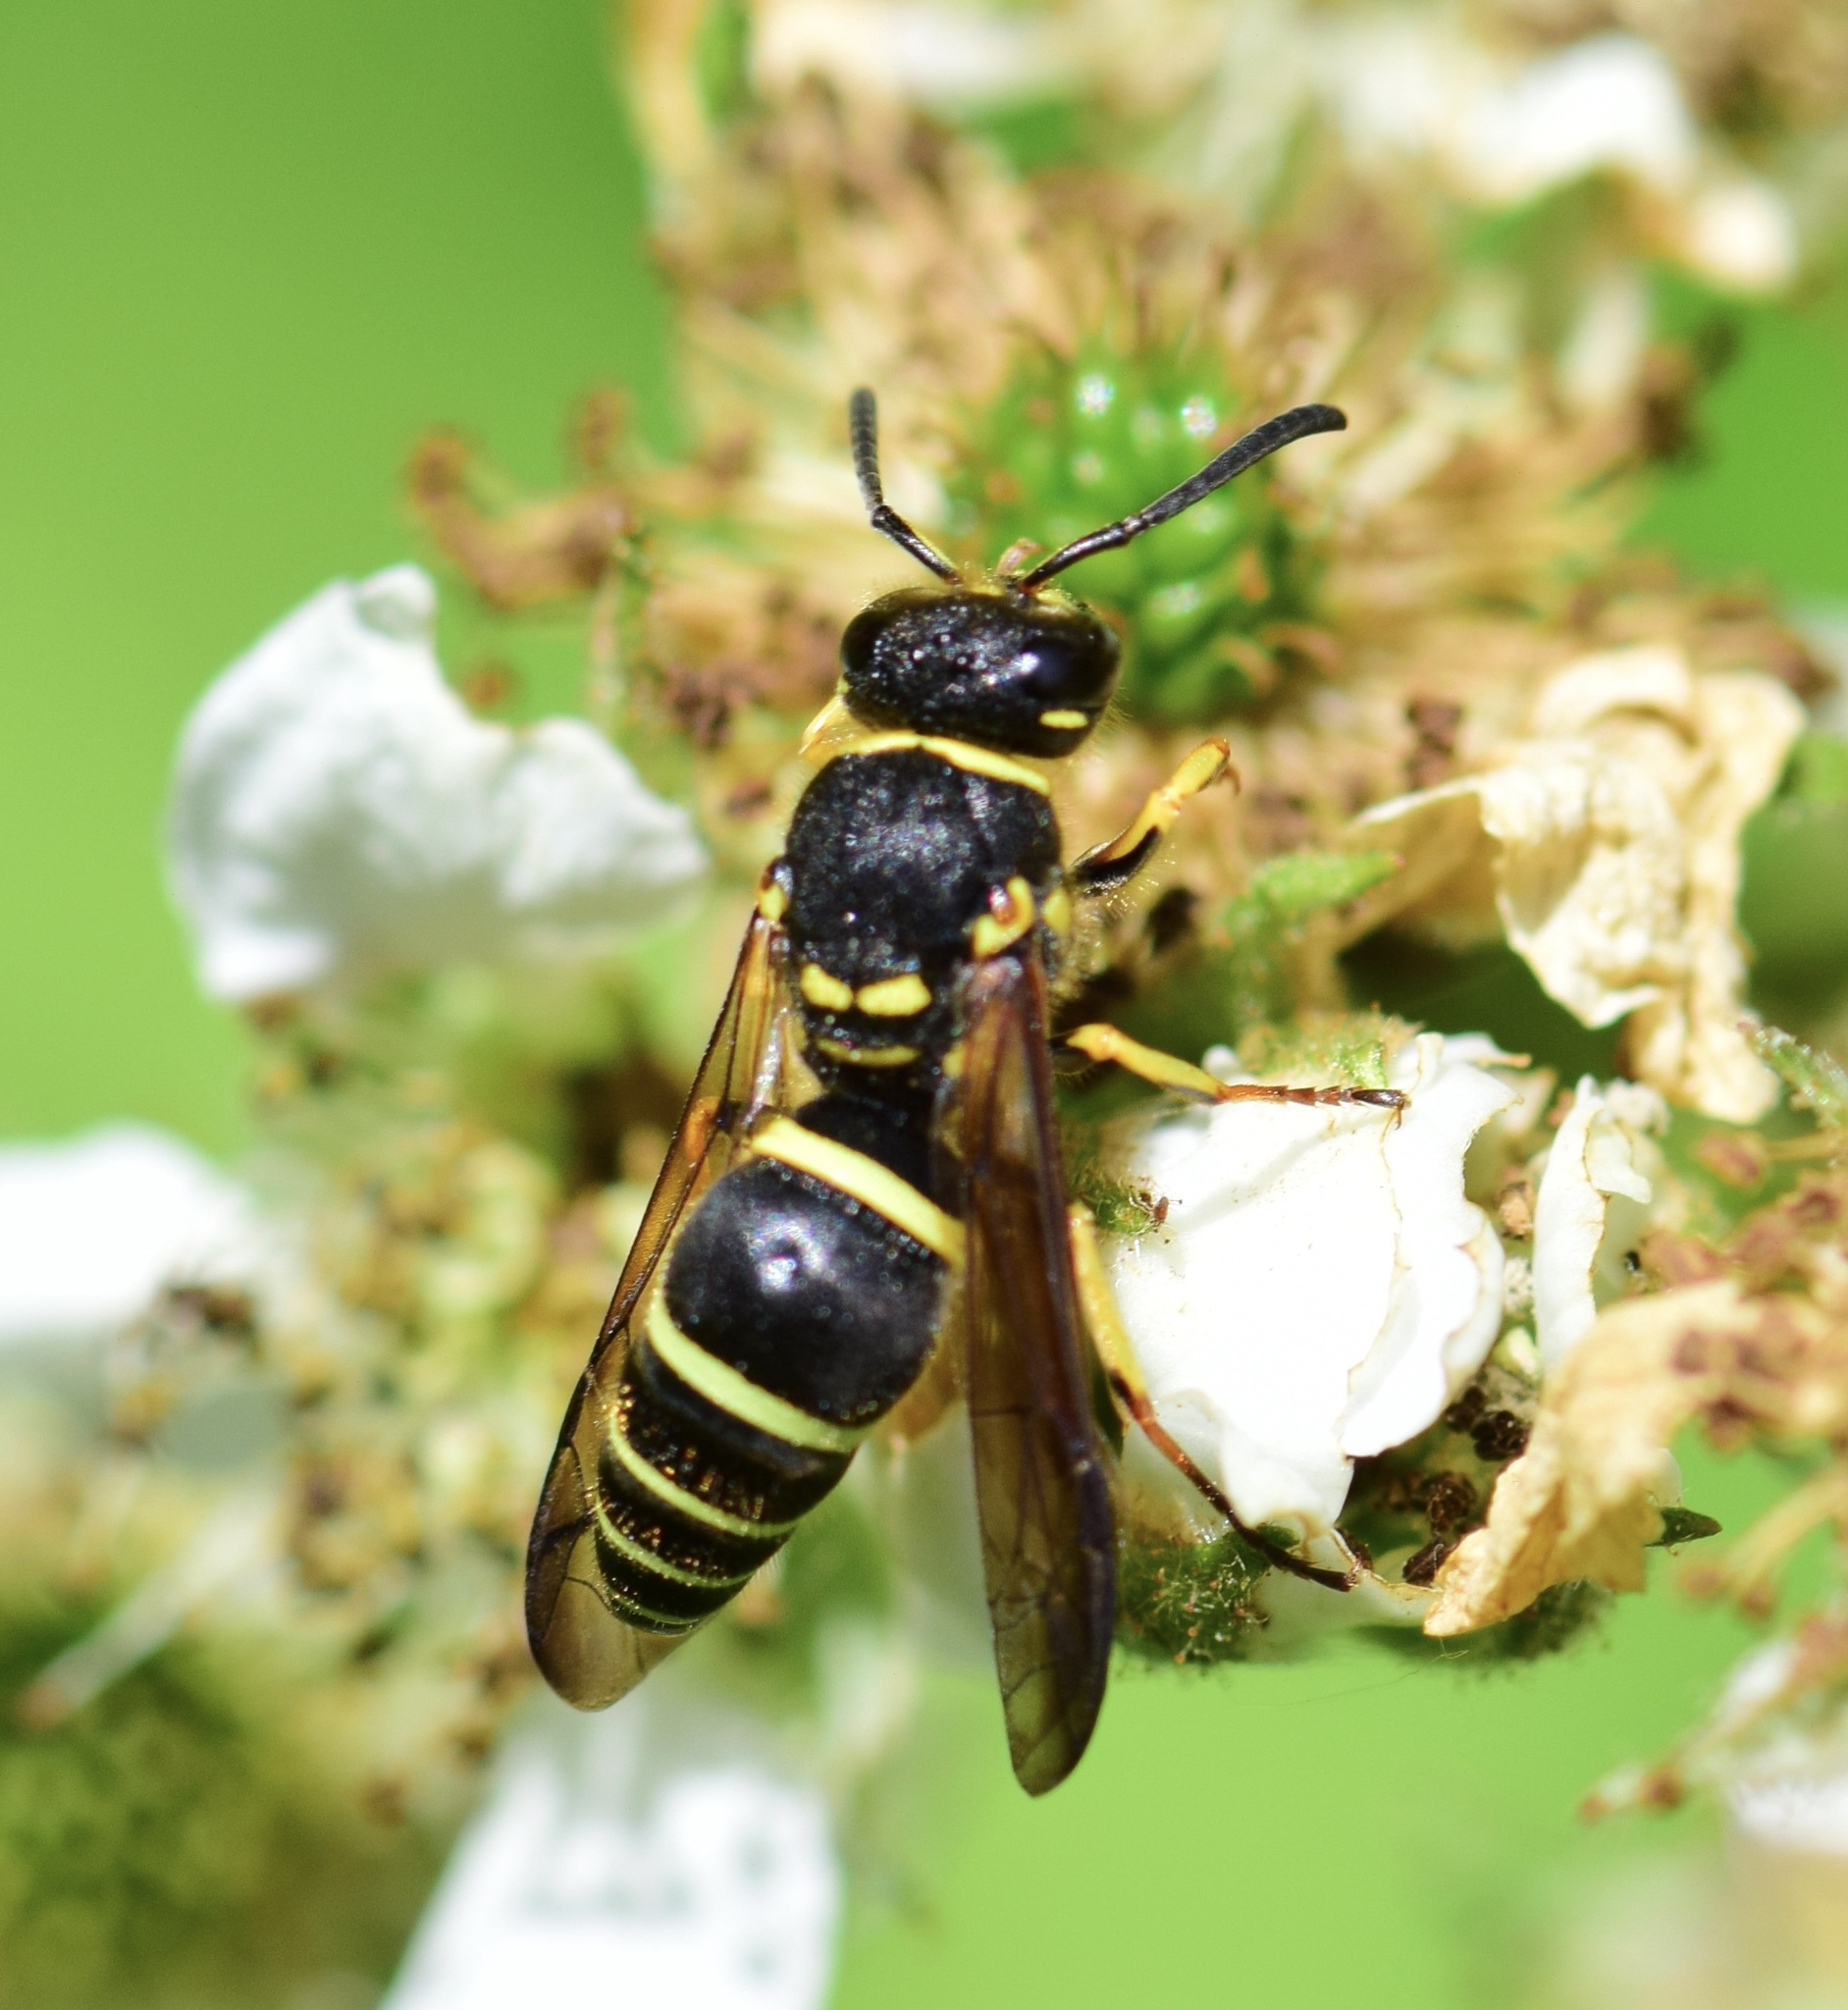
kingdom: Animalia
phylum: Arthropoda
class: Insecta
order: Hymenoptera
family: Vespidae
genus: Ancistrocerus
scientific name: Ancistrocerus catskill
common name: Vespid wasp
